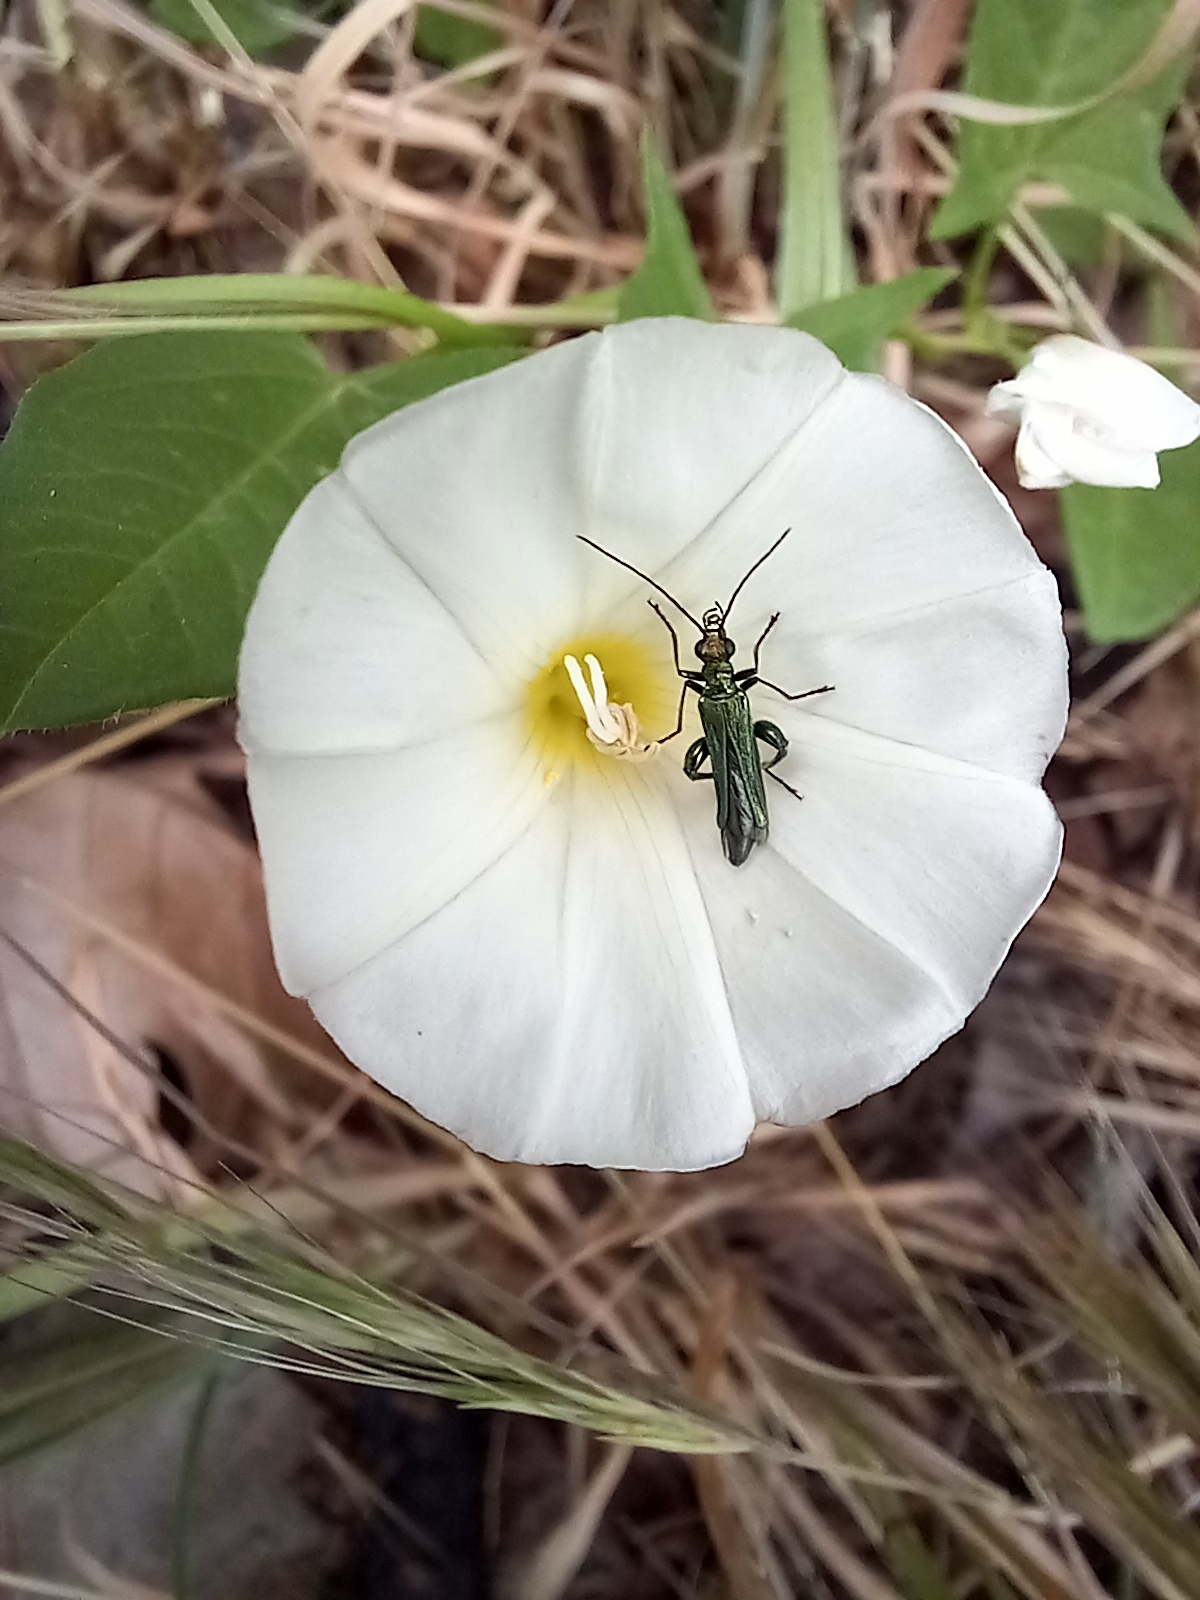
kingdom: Animalia
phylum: Arthropoda
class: Insecta
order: Coleoptera
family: Oedemeridae
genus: Oedemera
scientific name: Oedemera nobilis
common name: Swollen-thighed beetle
